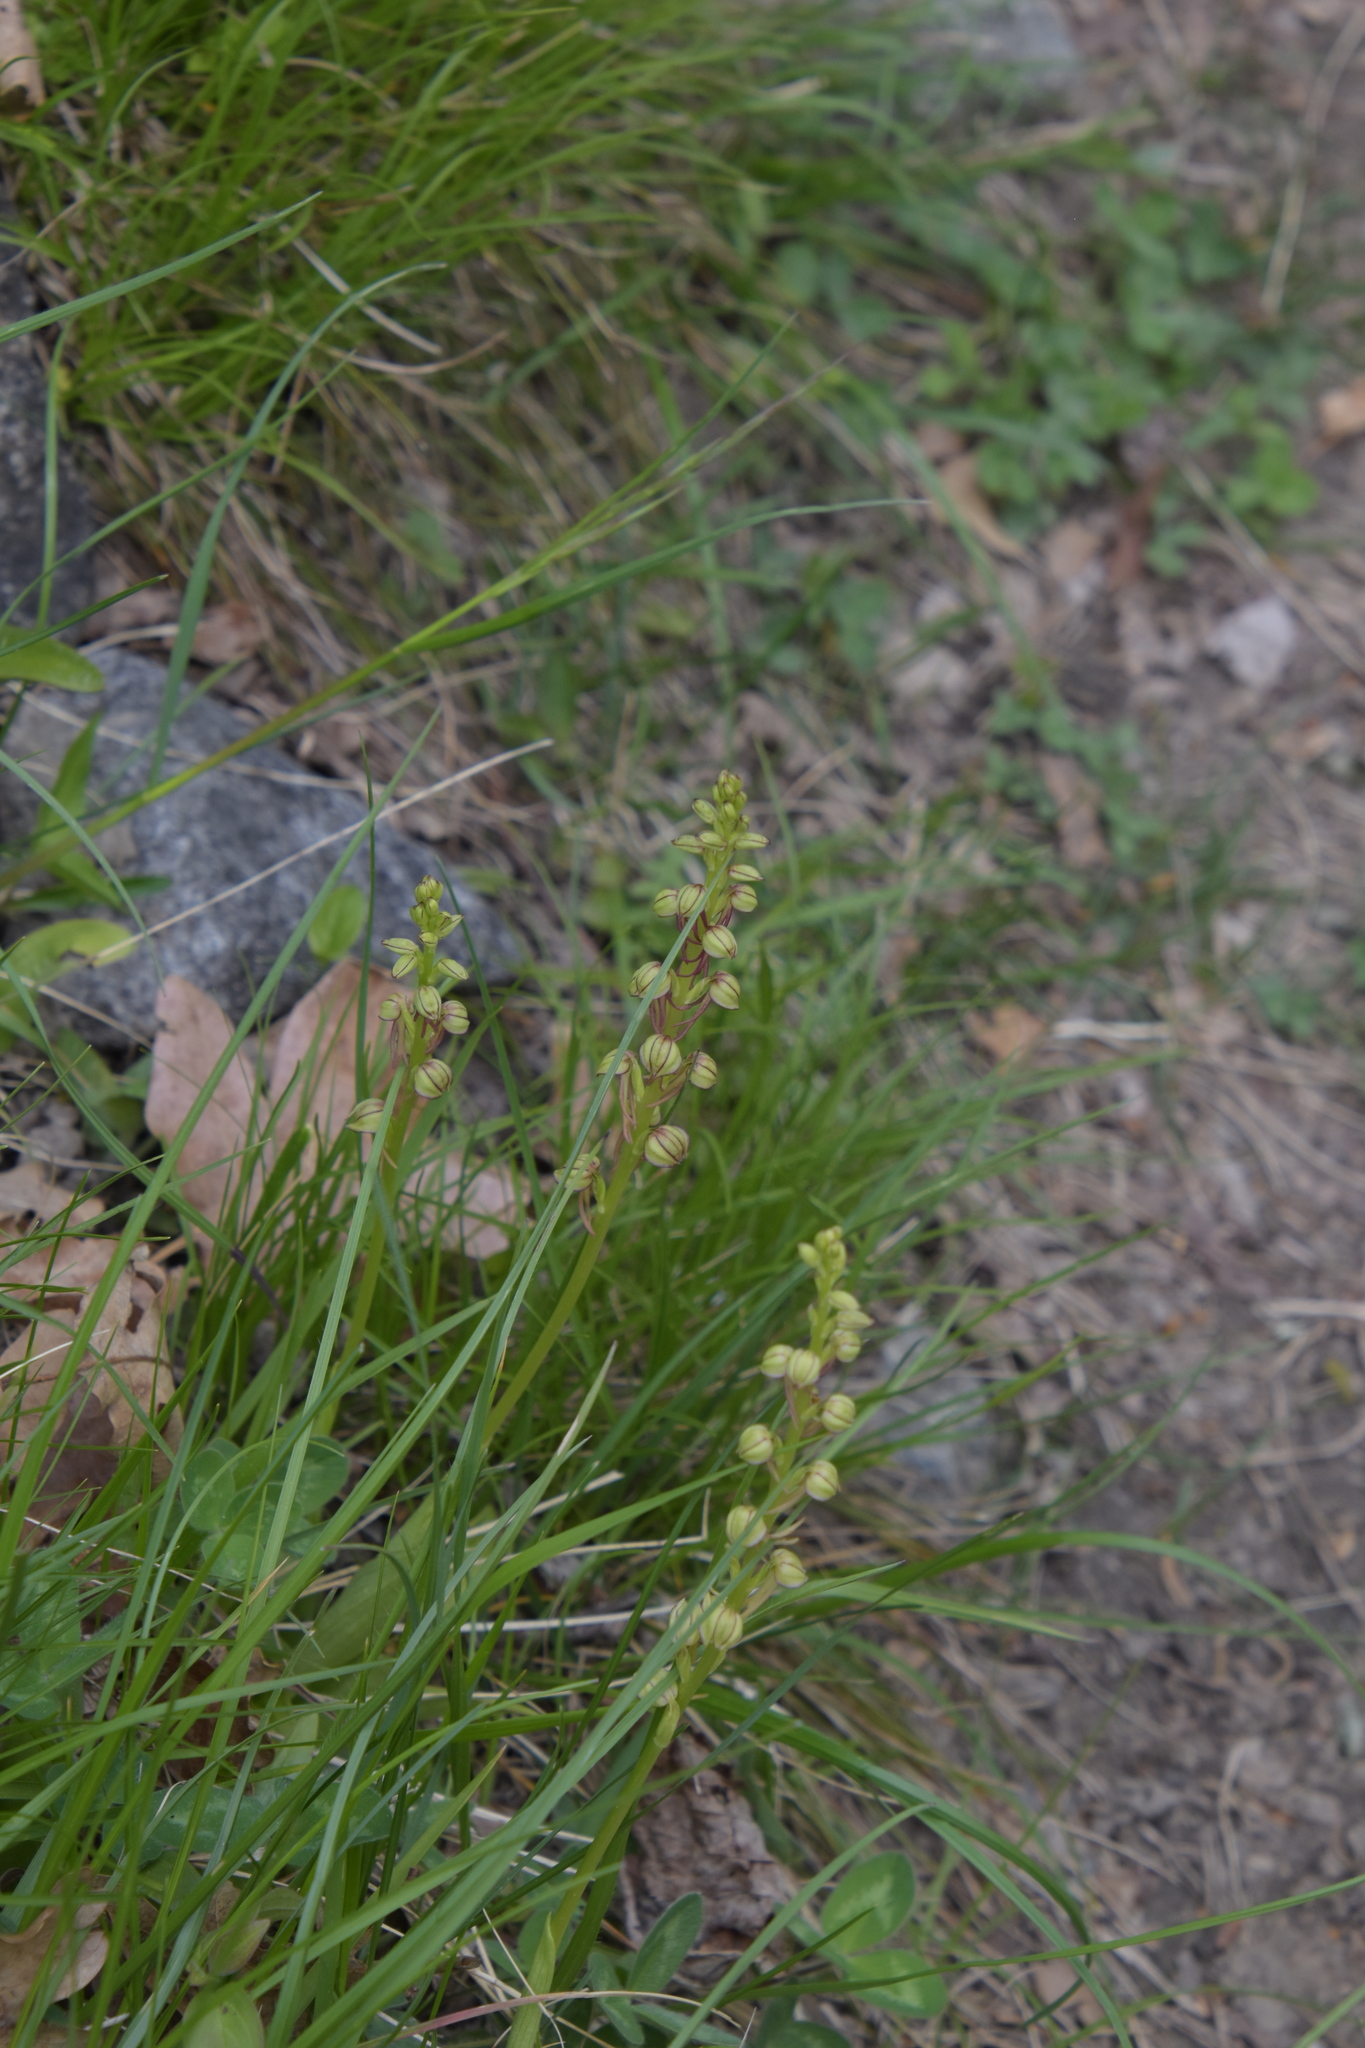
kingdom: Plantae
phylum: Tracheophyta
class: Liliopsida
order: Asparagales
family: Orchidaceae
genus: Orchis
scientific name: Orchis anthropophora
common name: Man orchid
